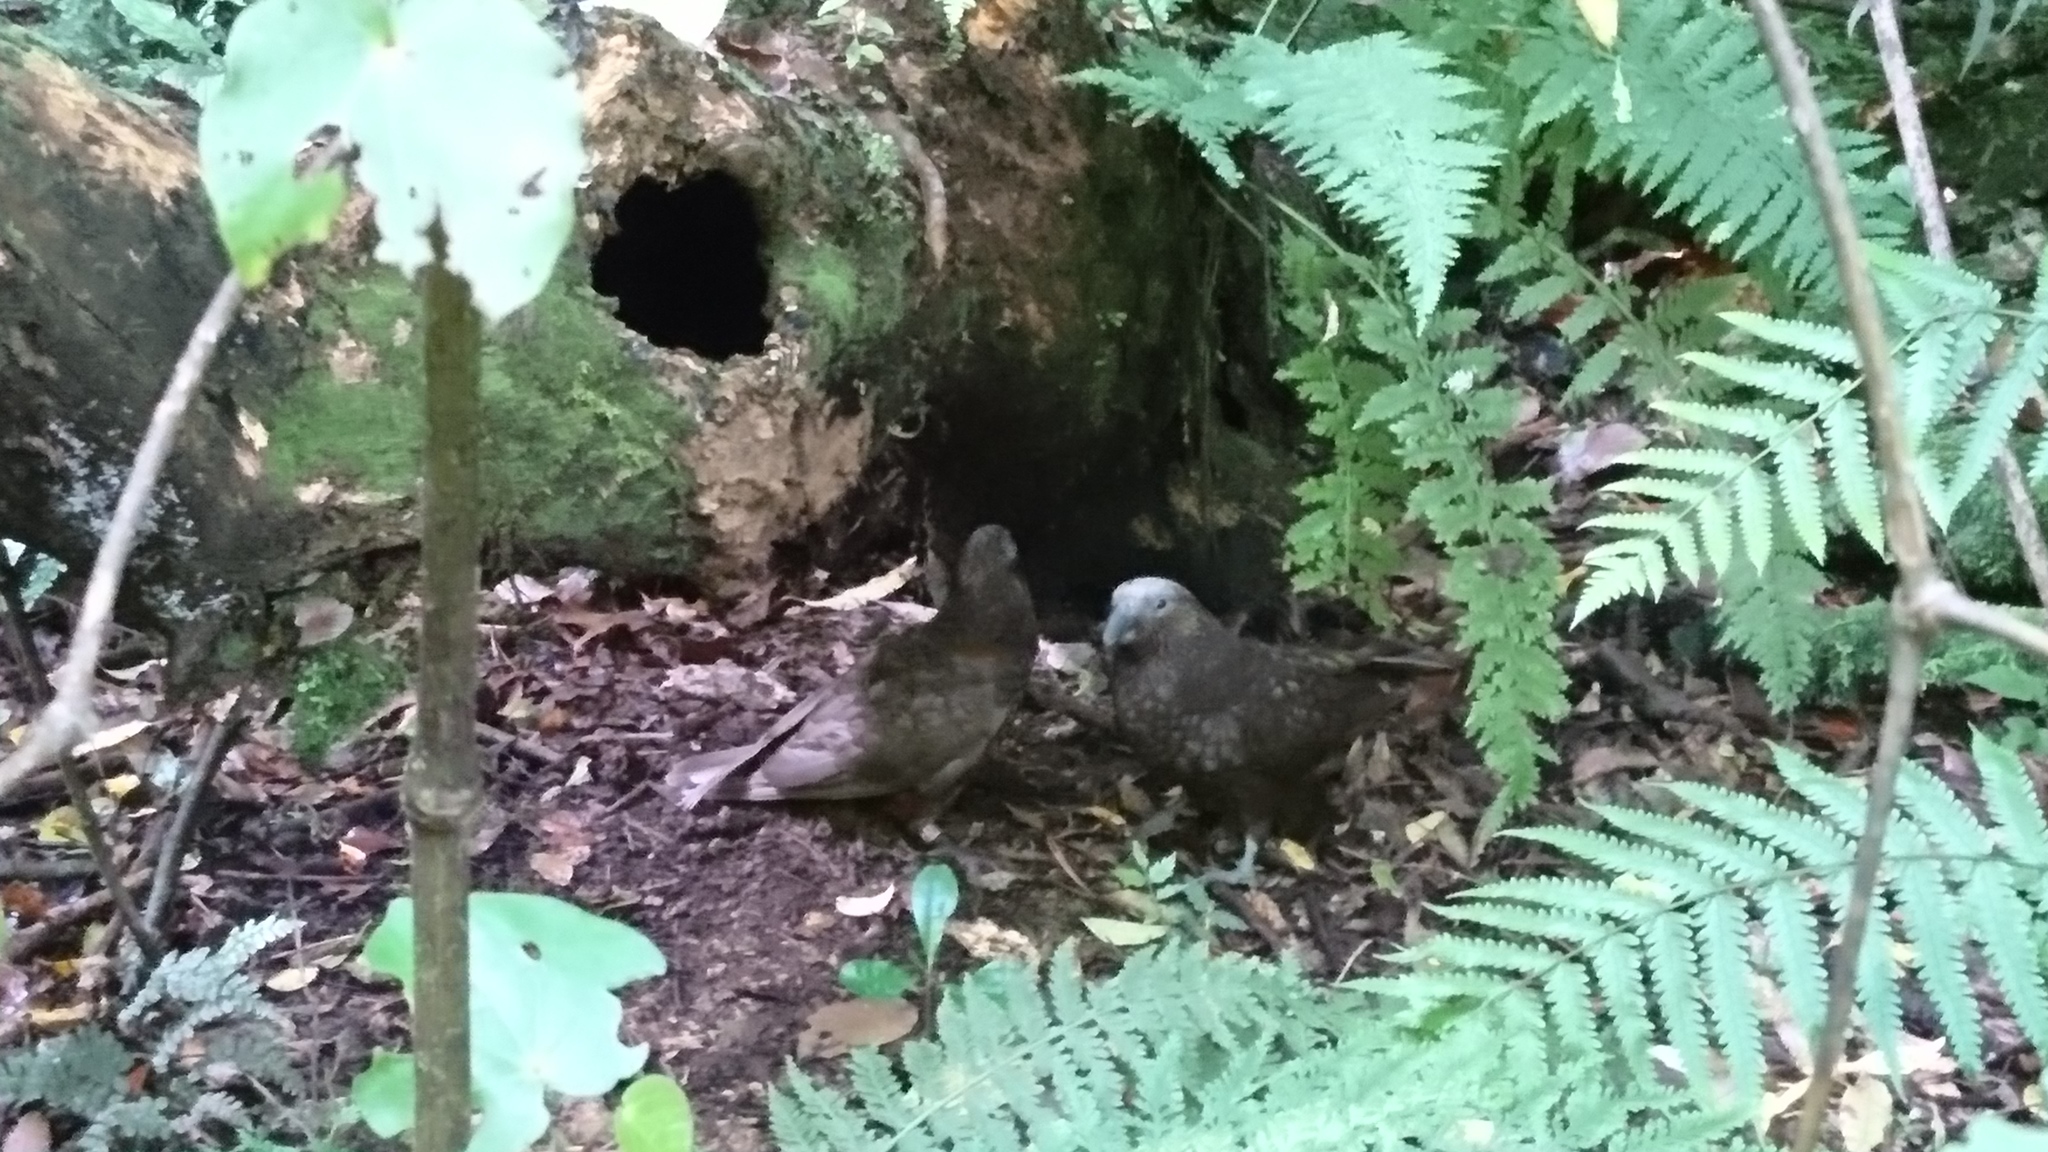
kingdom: Animalia
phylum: Chordata
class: Aves
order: Psittaciformes
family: Psittacidae
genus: Nestor
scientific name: Nestor meridionalis
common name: New zealand kaka
